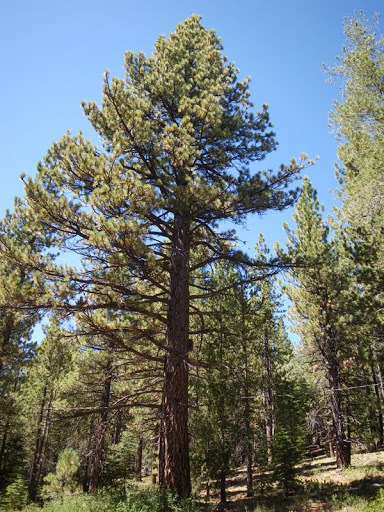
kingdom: Plantae
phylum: Tracheophyta
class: Pinopsida
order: Pinales
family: Pinaceae
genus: Pinus
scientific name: Pinus jeffreyi
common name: Jeffrey pine
